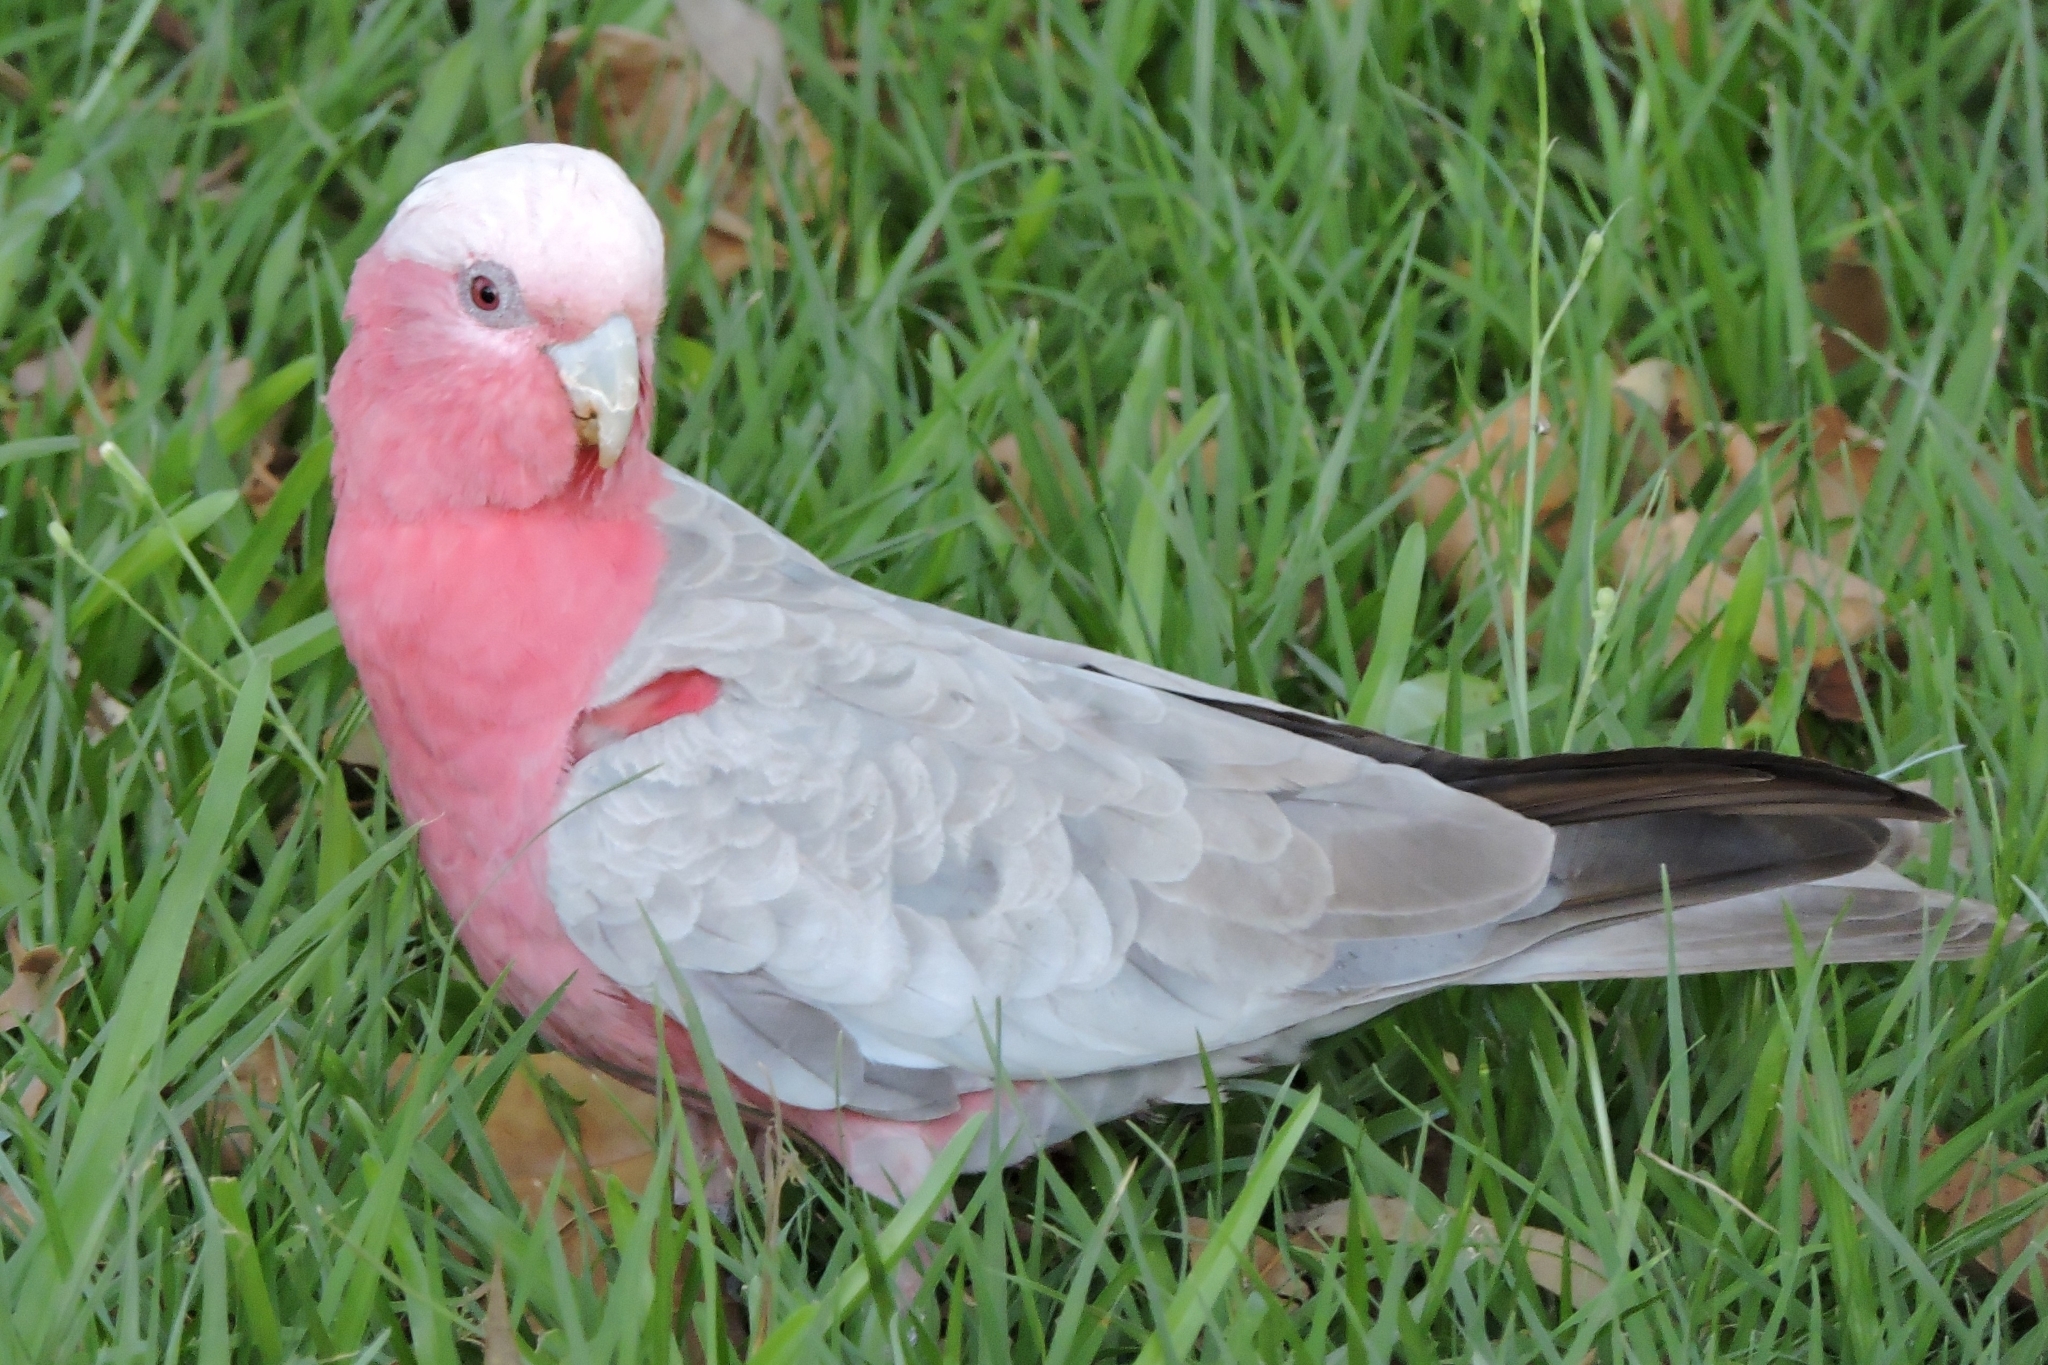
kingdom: Animalia
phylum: Chordata
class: Aves
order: Psittaciformes
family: Psittacidae
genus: Eolophus
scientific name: Eolophus roseicapilla
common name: Galah
